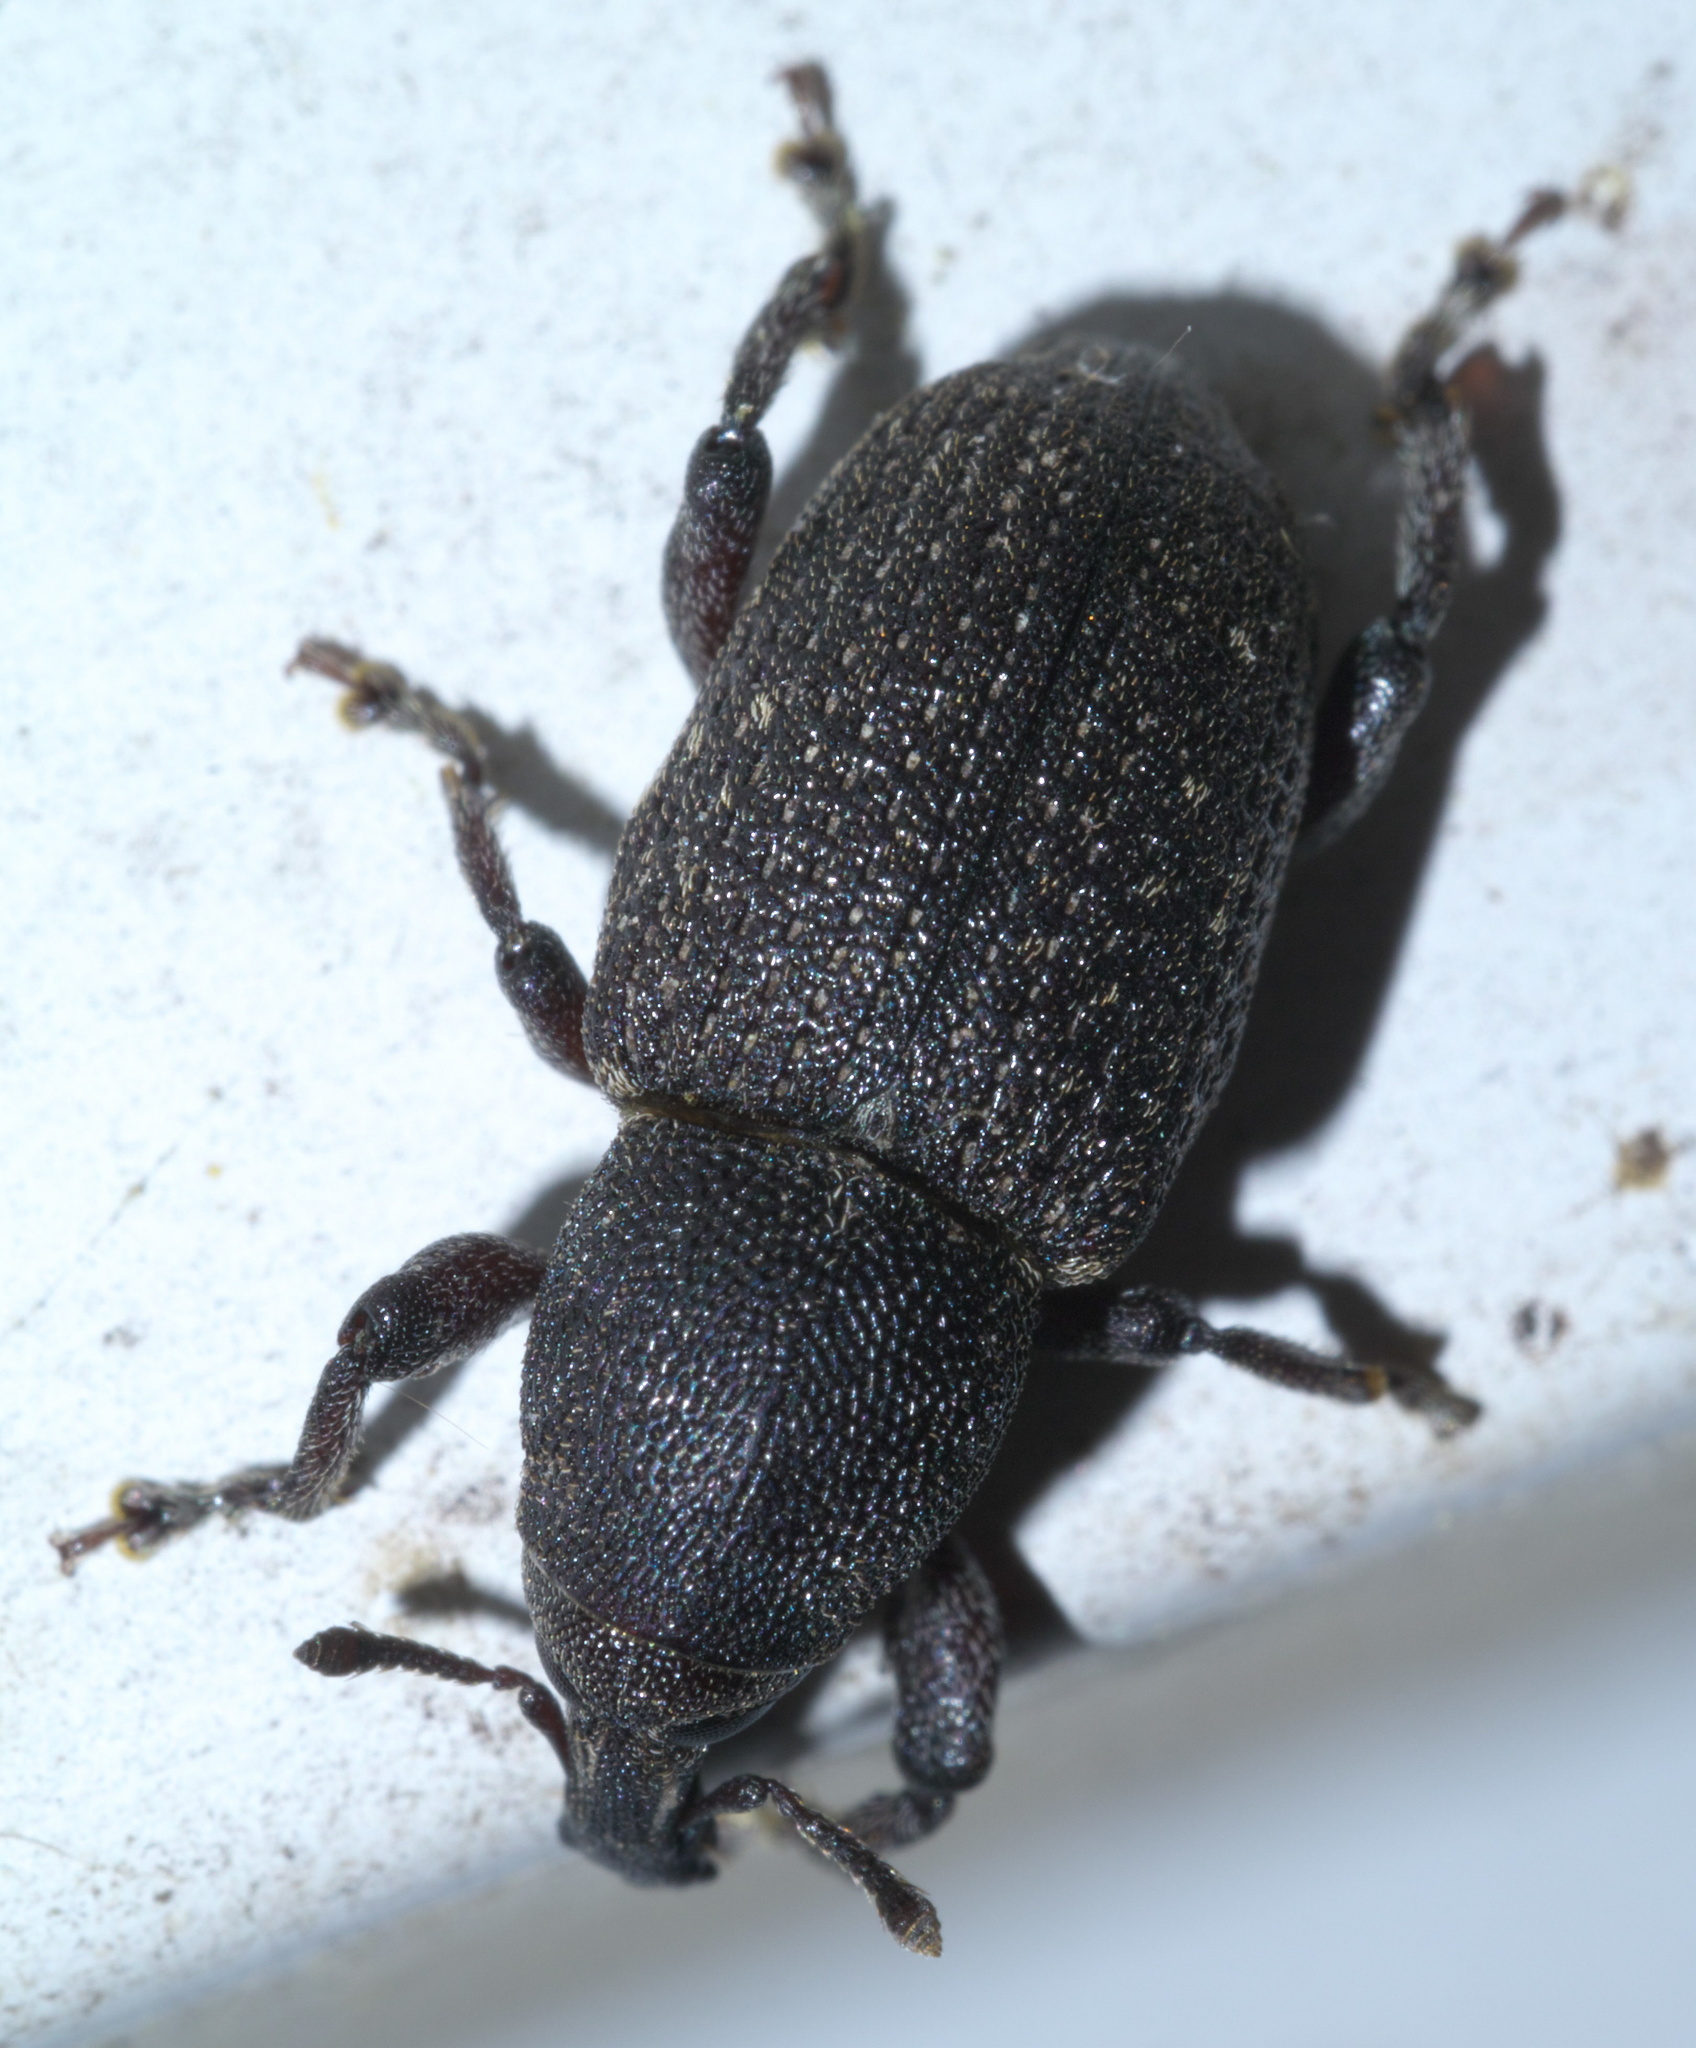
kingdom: Animalia
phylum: Arthropoda
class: Insecta
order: Coleoptera
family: Curculionidae
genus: Pachylobius
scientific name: Pachylobius picivorus
